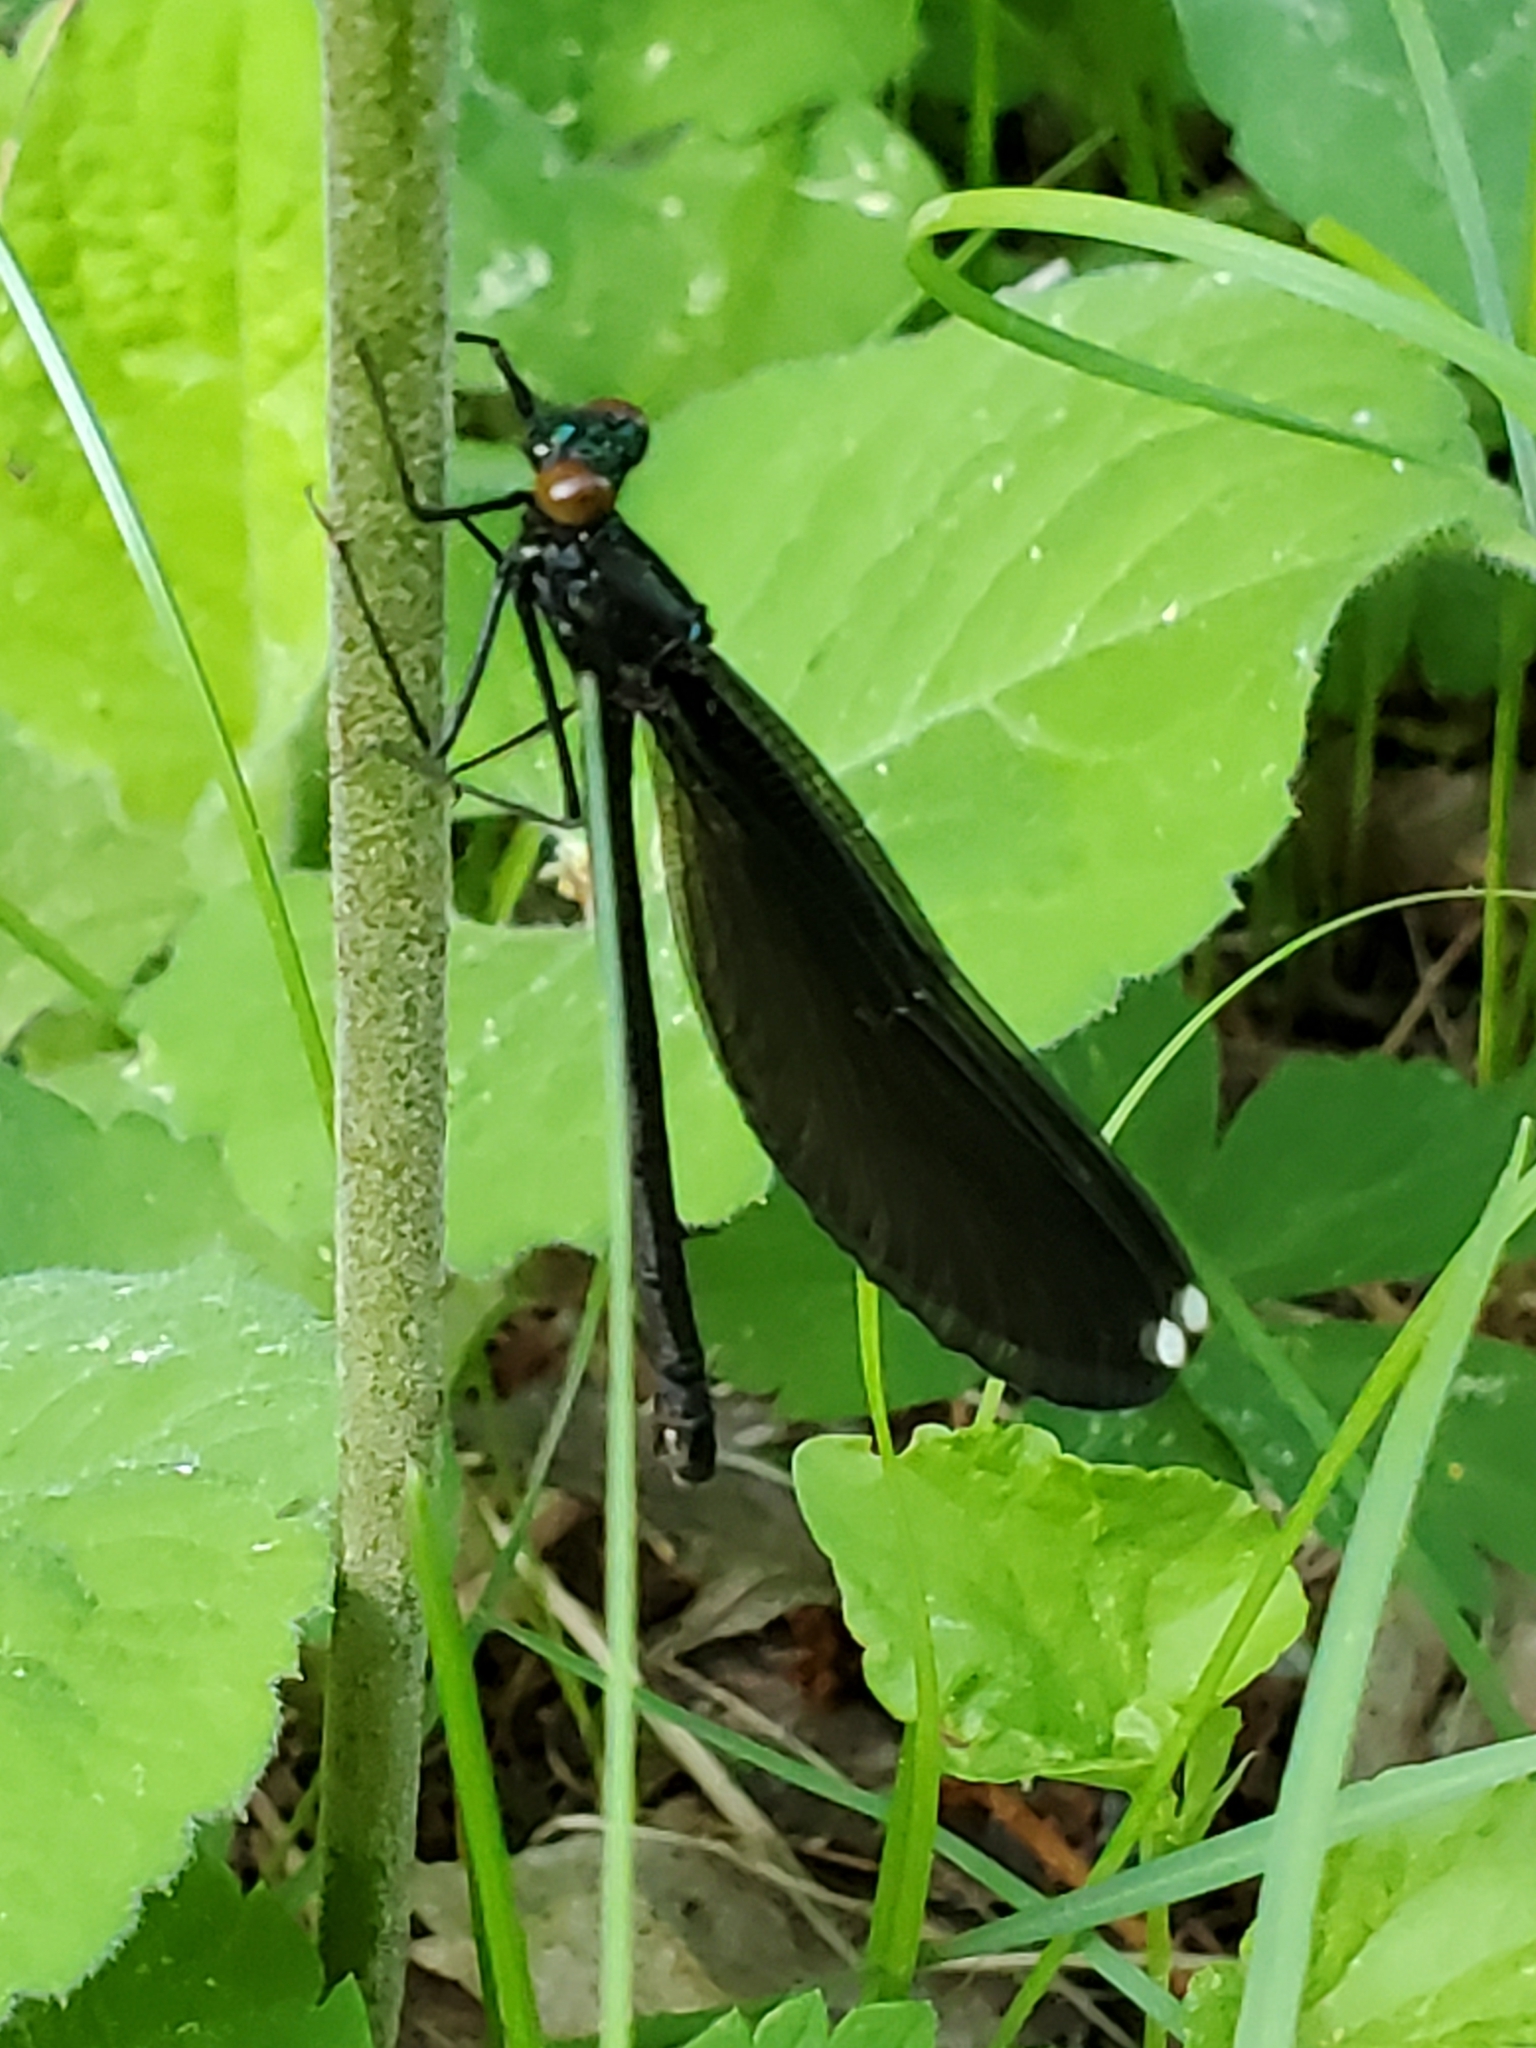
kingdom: Animalia
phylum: Arthropoda
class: Insecta
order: Odonata
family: Calopterygidae
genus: Calopteryx
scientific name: Calopteryx maculata
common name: Ebony jewelwing
